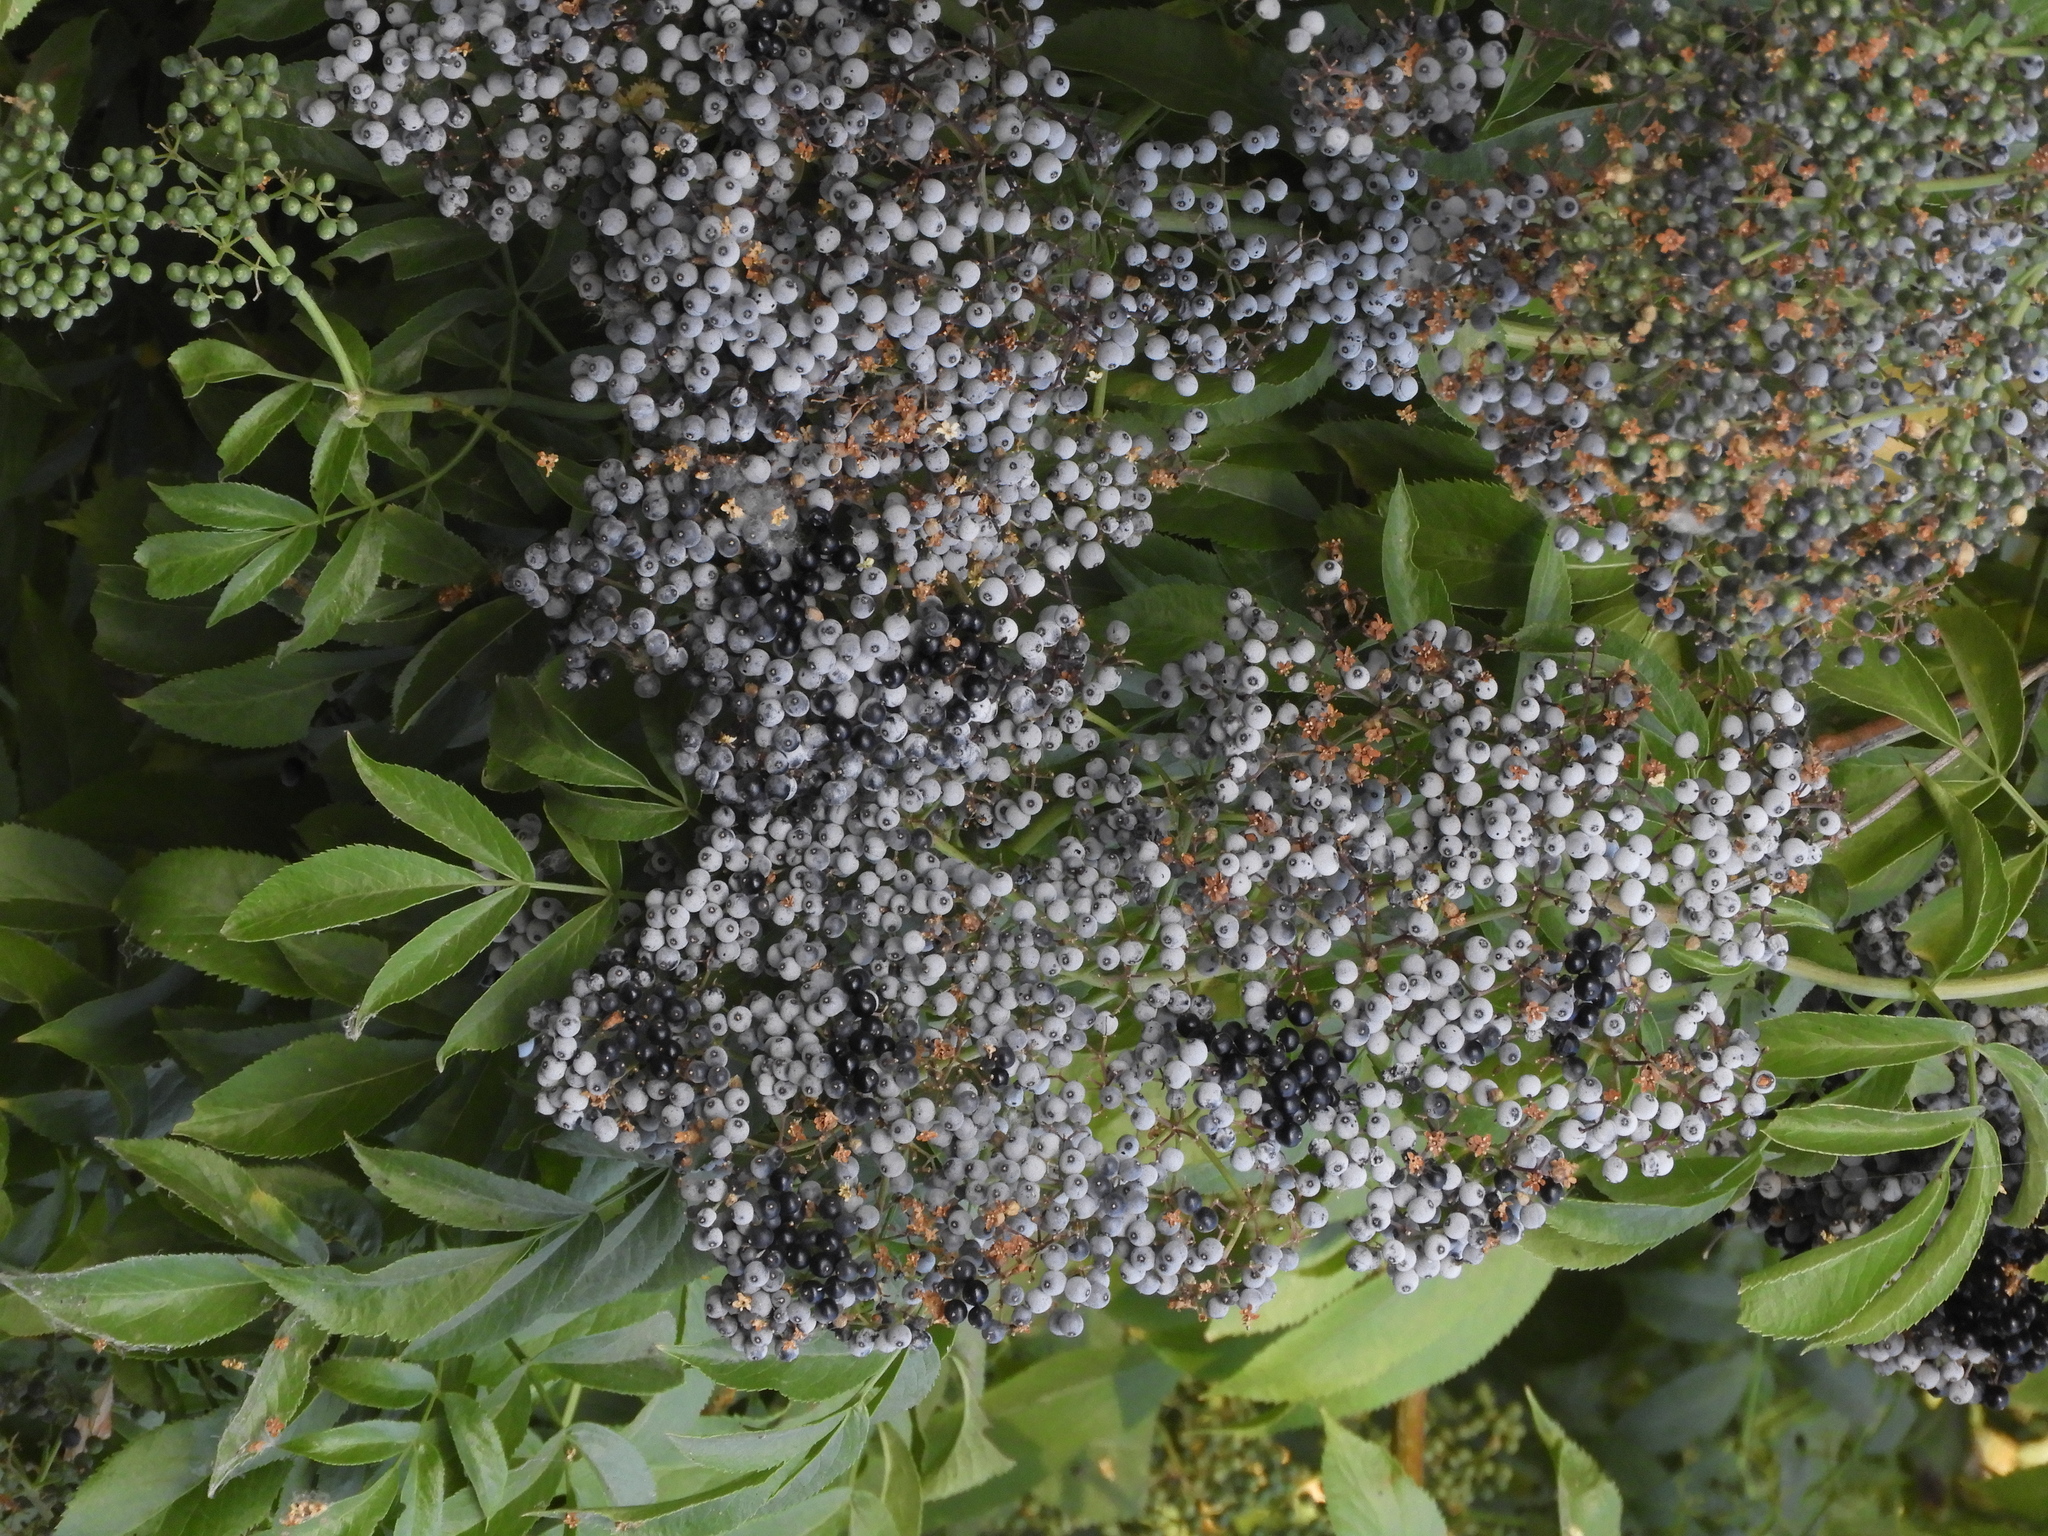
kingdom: Plantae
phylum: Tracheophyta
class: Magnoliopsida
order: Dipsacales
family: Viburnaceae
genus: Sambucus
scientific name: Sambucus cerulea
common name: Blue elder
